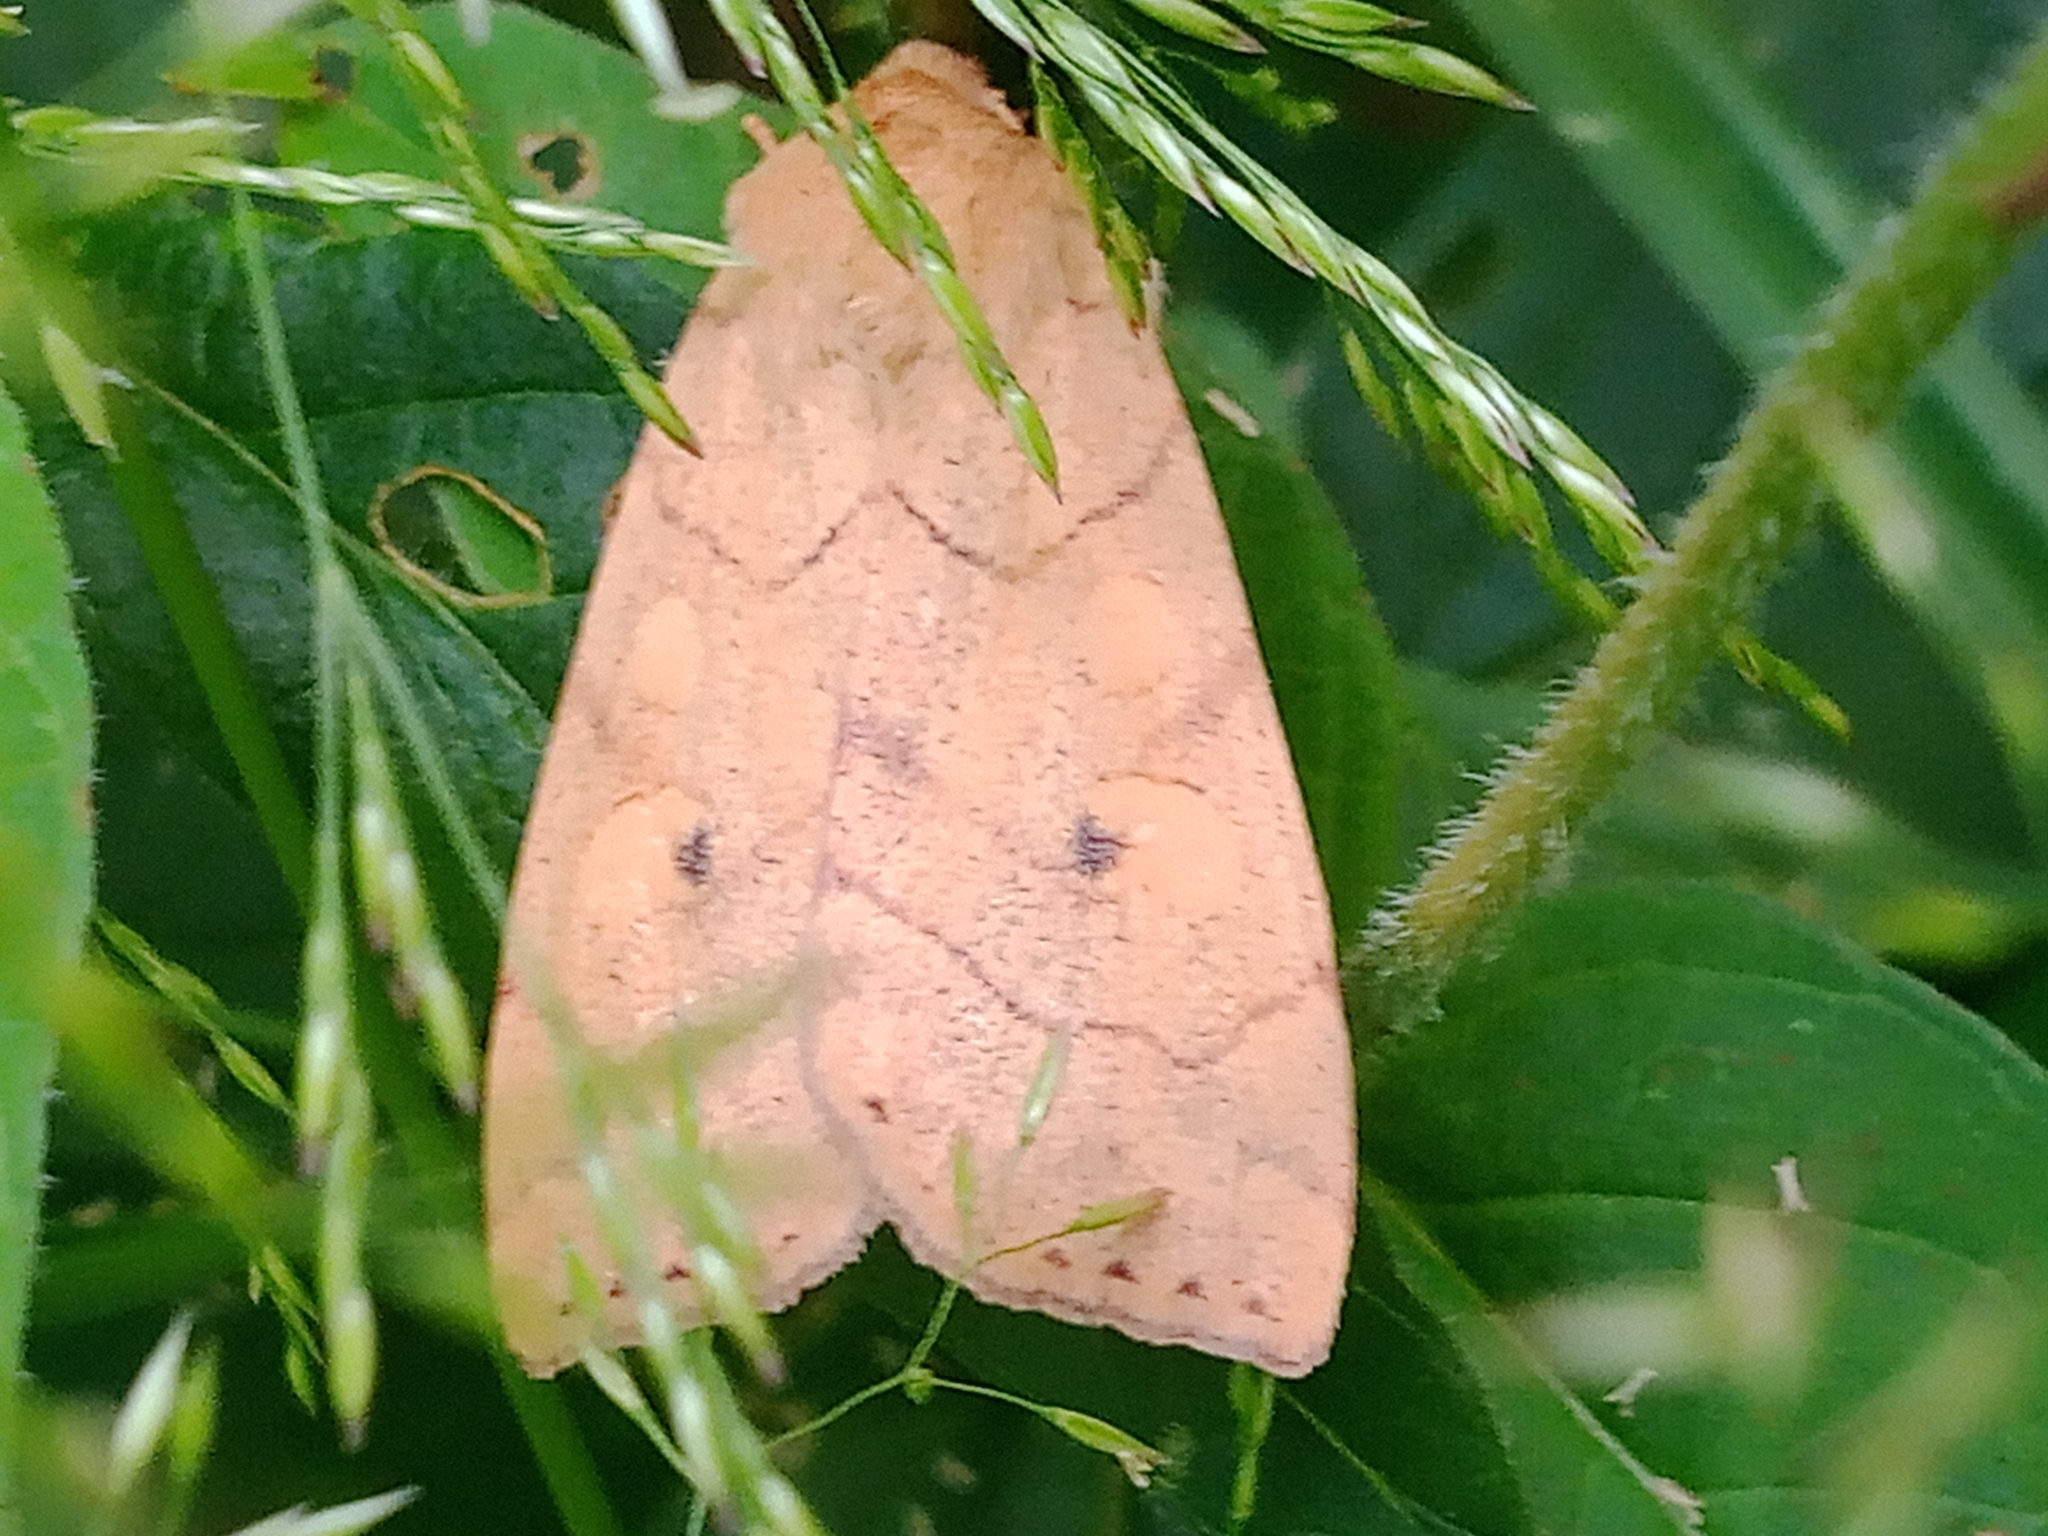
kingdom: Animalia
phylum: Arthropoda
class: Insecta
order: Lepidoptera
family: Noctuidae
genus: Enargia
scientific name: Enargia paleacea
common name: Angle-striped sallow
